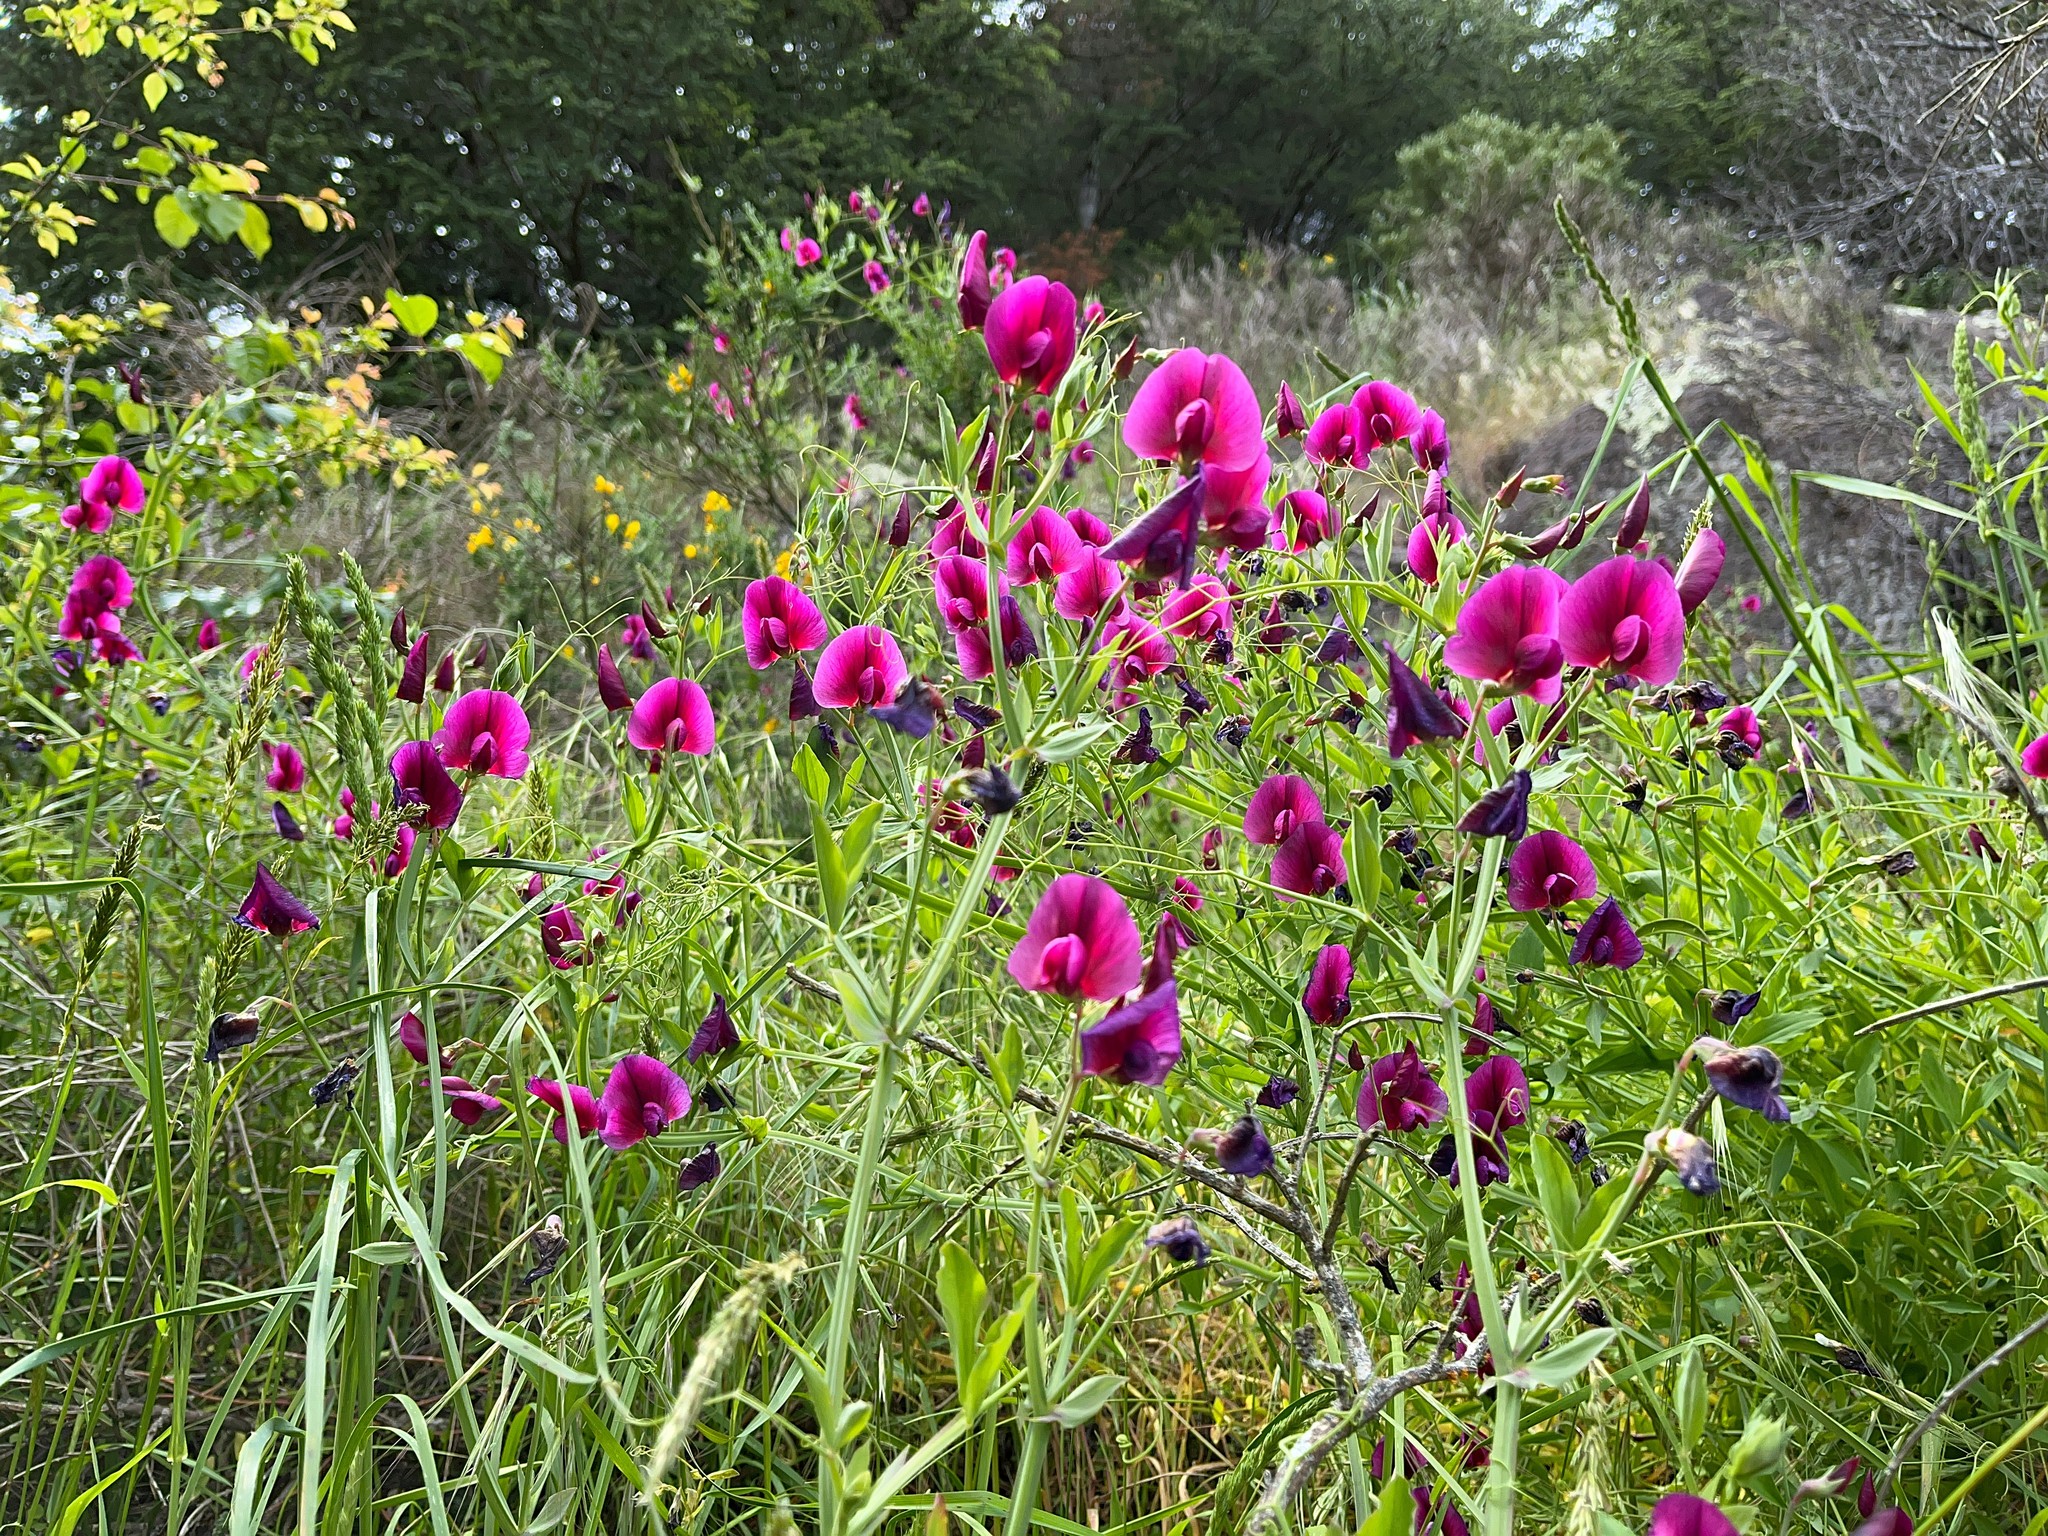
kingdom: Plantae
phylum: Tracheophyta
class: Magnoliopsida
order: Fabales
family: Fabaceae
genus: Lathyrus
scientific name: Lathyrus tingitanus
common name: Tangier pea
